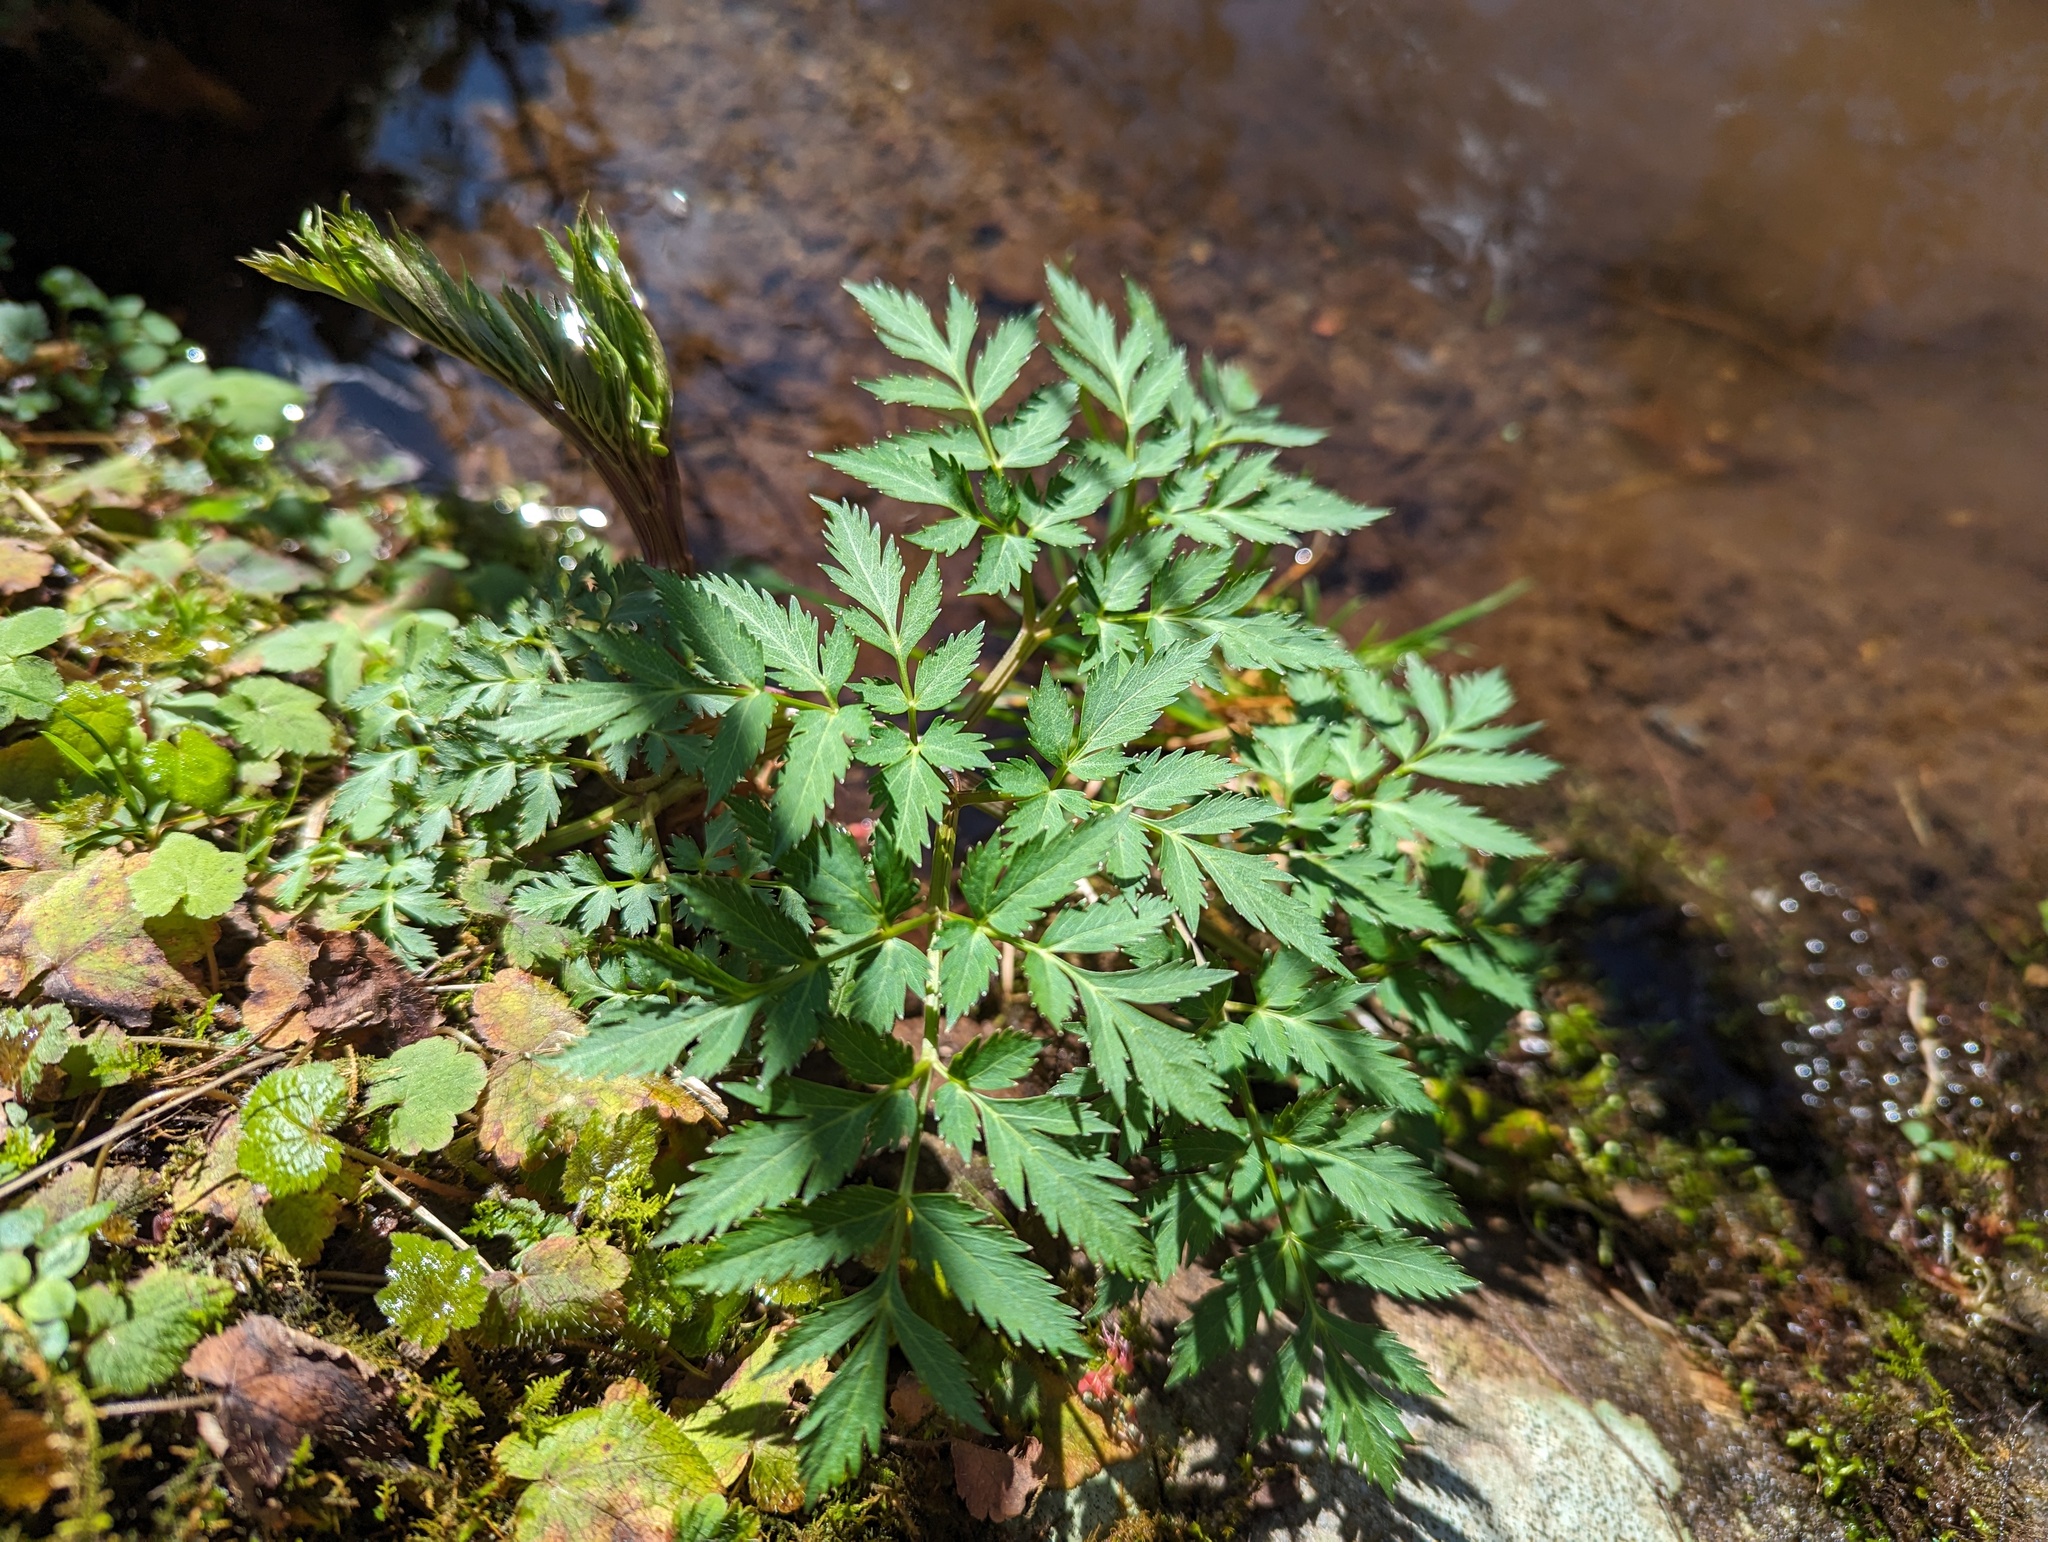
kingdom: Plantae
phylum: Tracheophyta
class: Magnoliopsida
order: Apiales
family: Apiaceae
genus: Angelica
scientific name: Angelica triquinata
